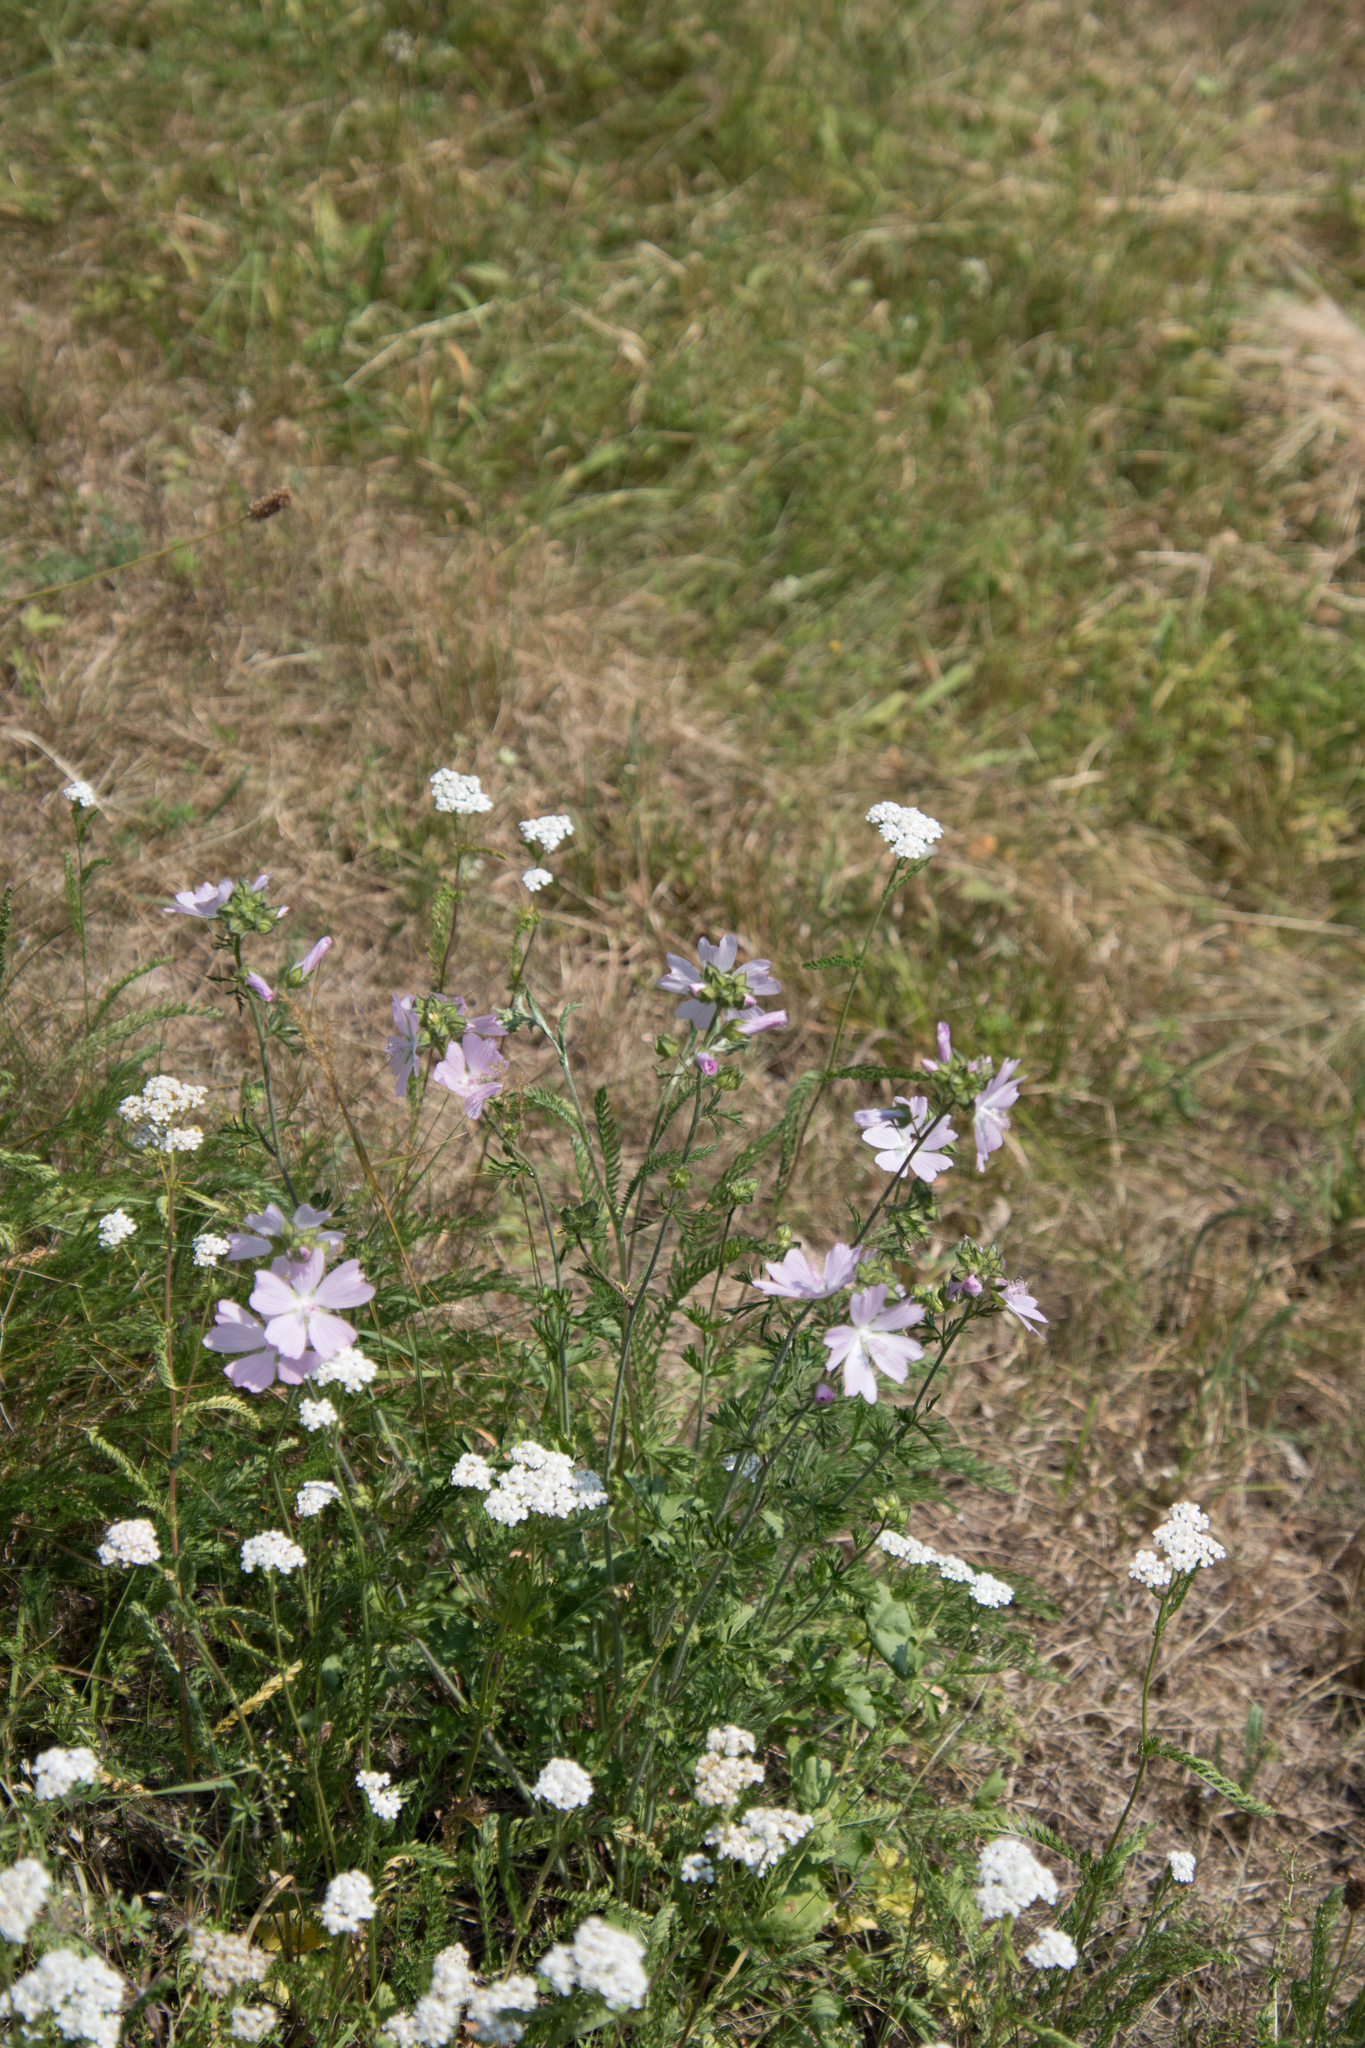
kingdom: Plantae
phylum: Tracheophyta
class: Magnoliopsida
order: Malvales
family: Malvaceae
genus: Malva
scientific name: Malva moschata
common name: Musk mallow
